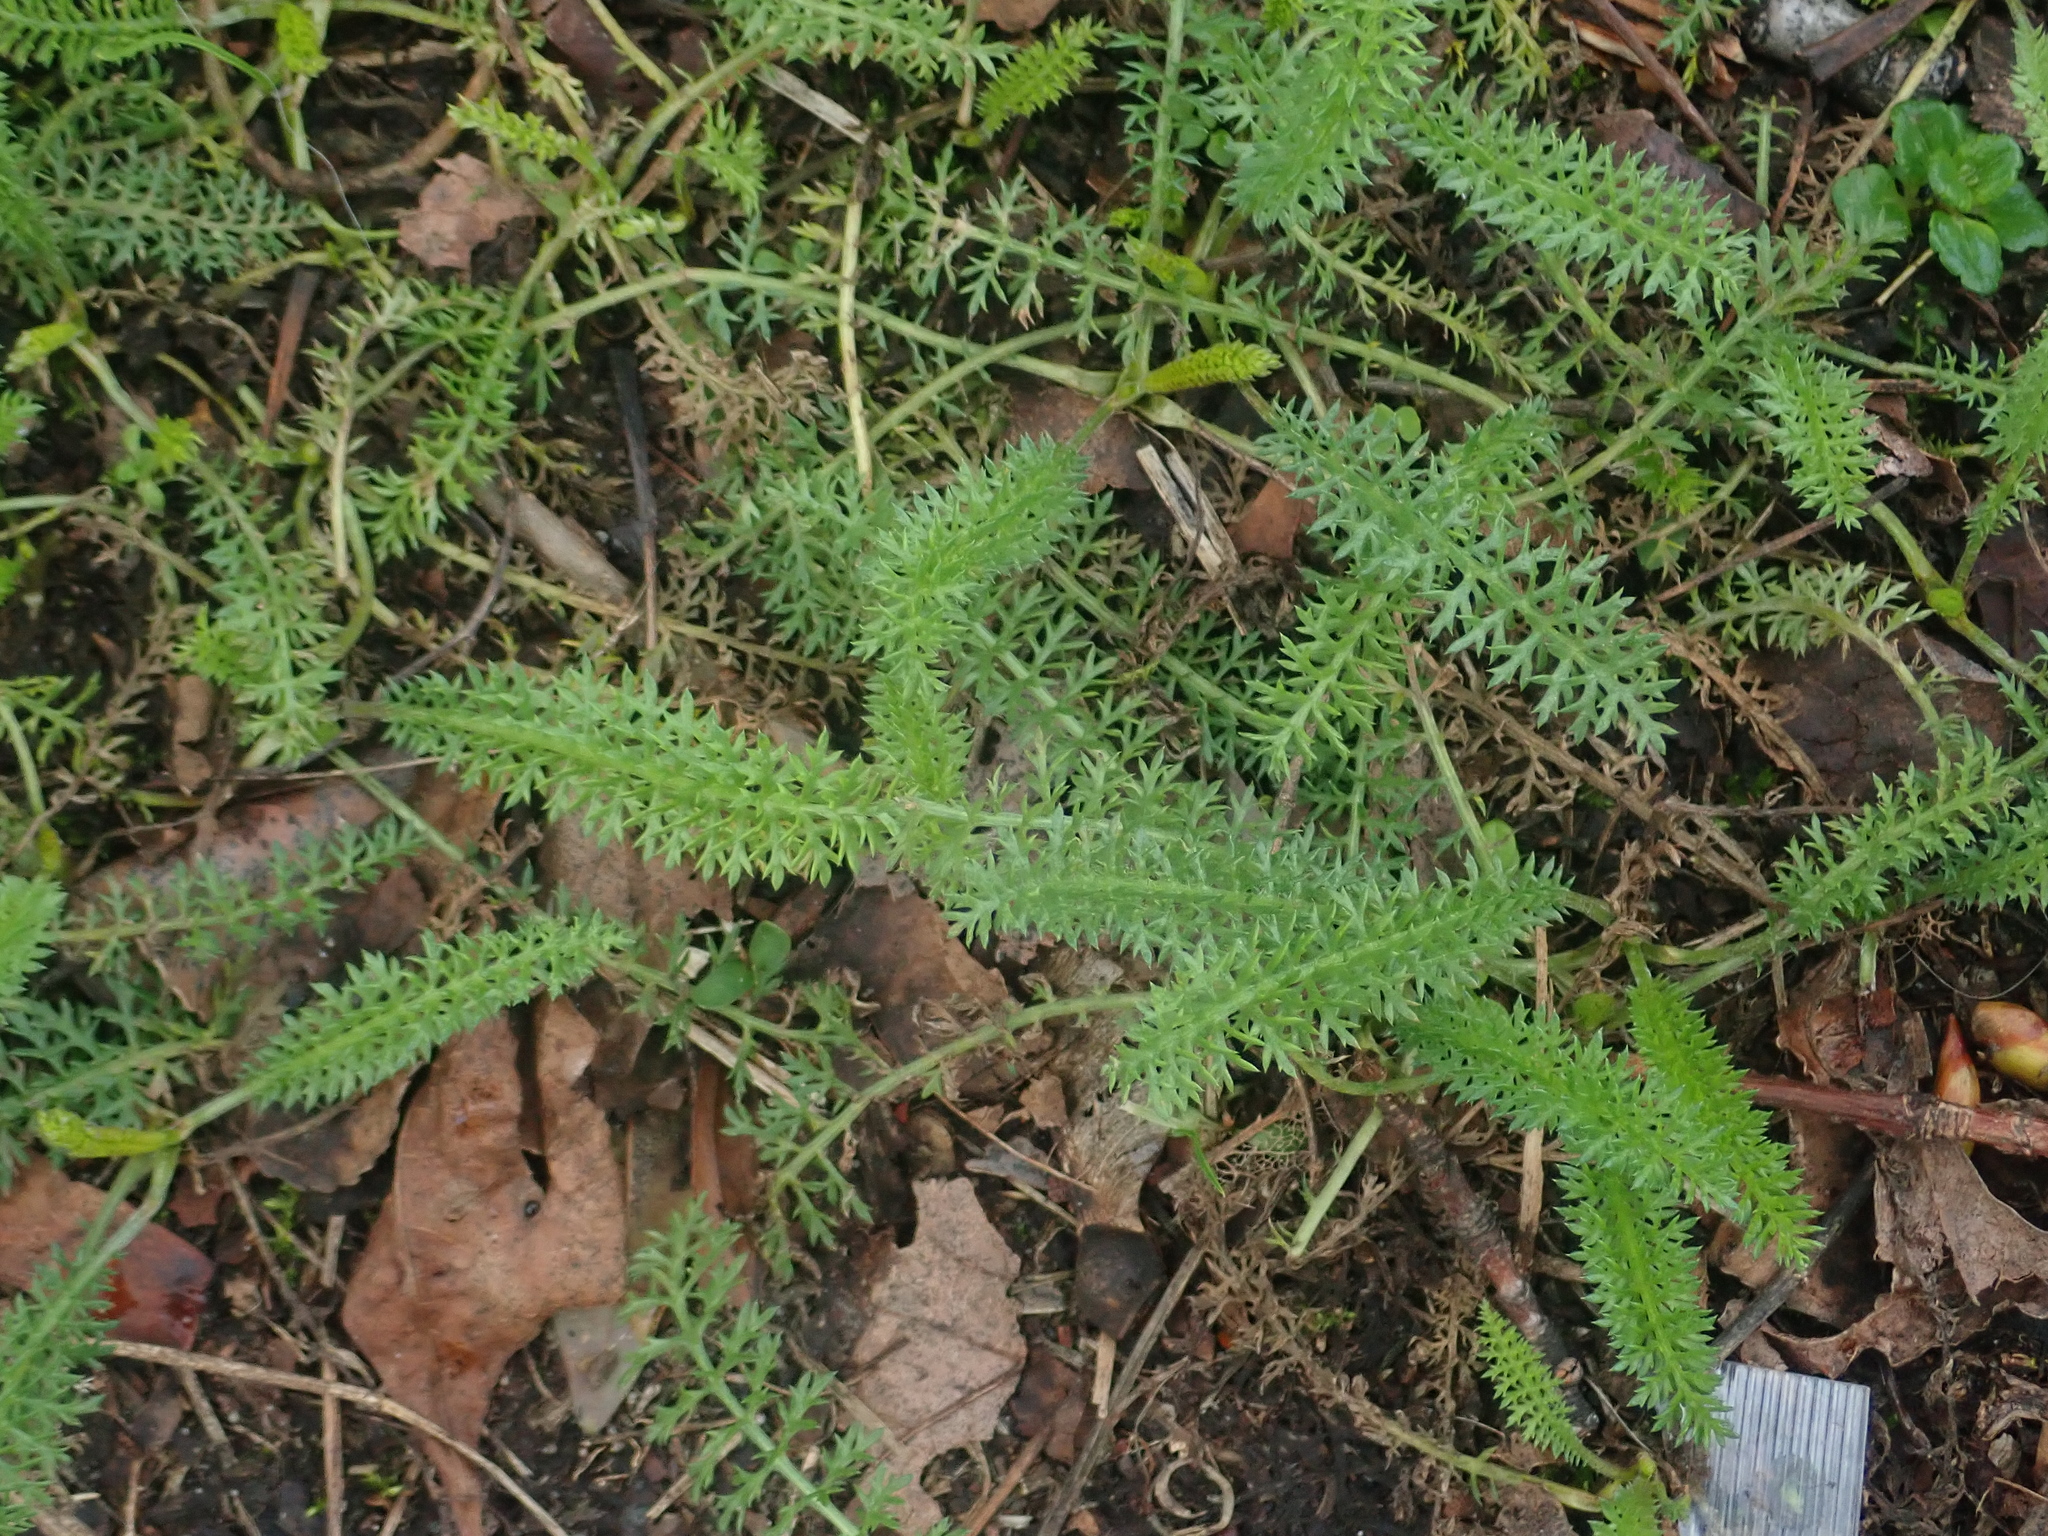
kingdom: Plantae
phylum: Tracheophyta
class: Magnoliopsida
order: Asterales
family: Asteraceae
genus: Achillea
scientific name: Achillea millefolium
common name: Yarrow
